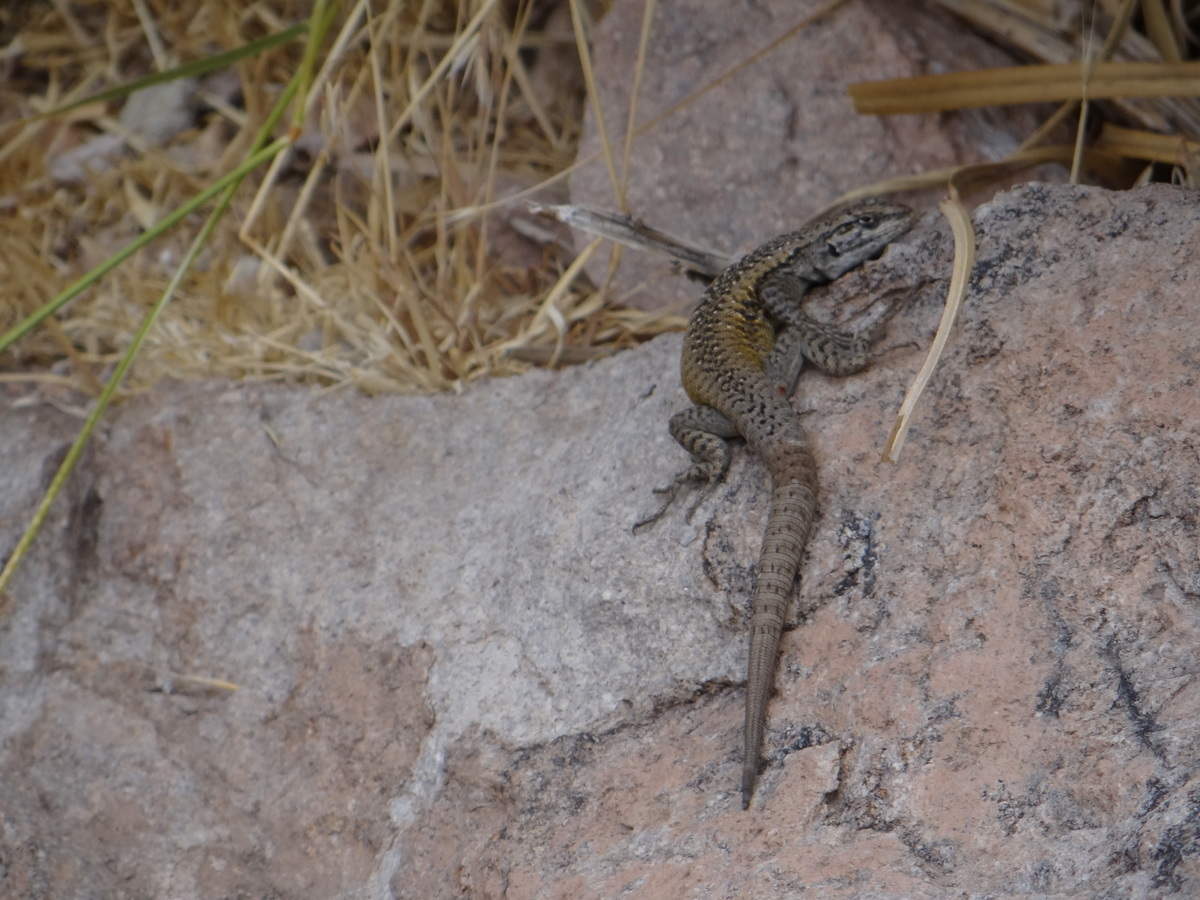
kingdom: Animalia
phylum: Chordata
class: Squamata
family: Liolaemidae
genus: Liolaemus
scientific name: Liolaemus smaug
